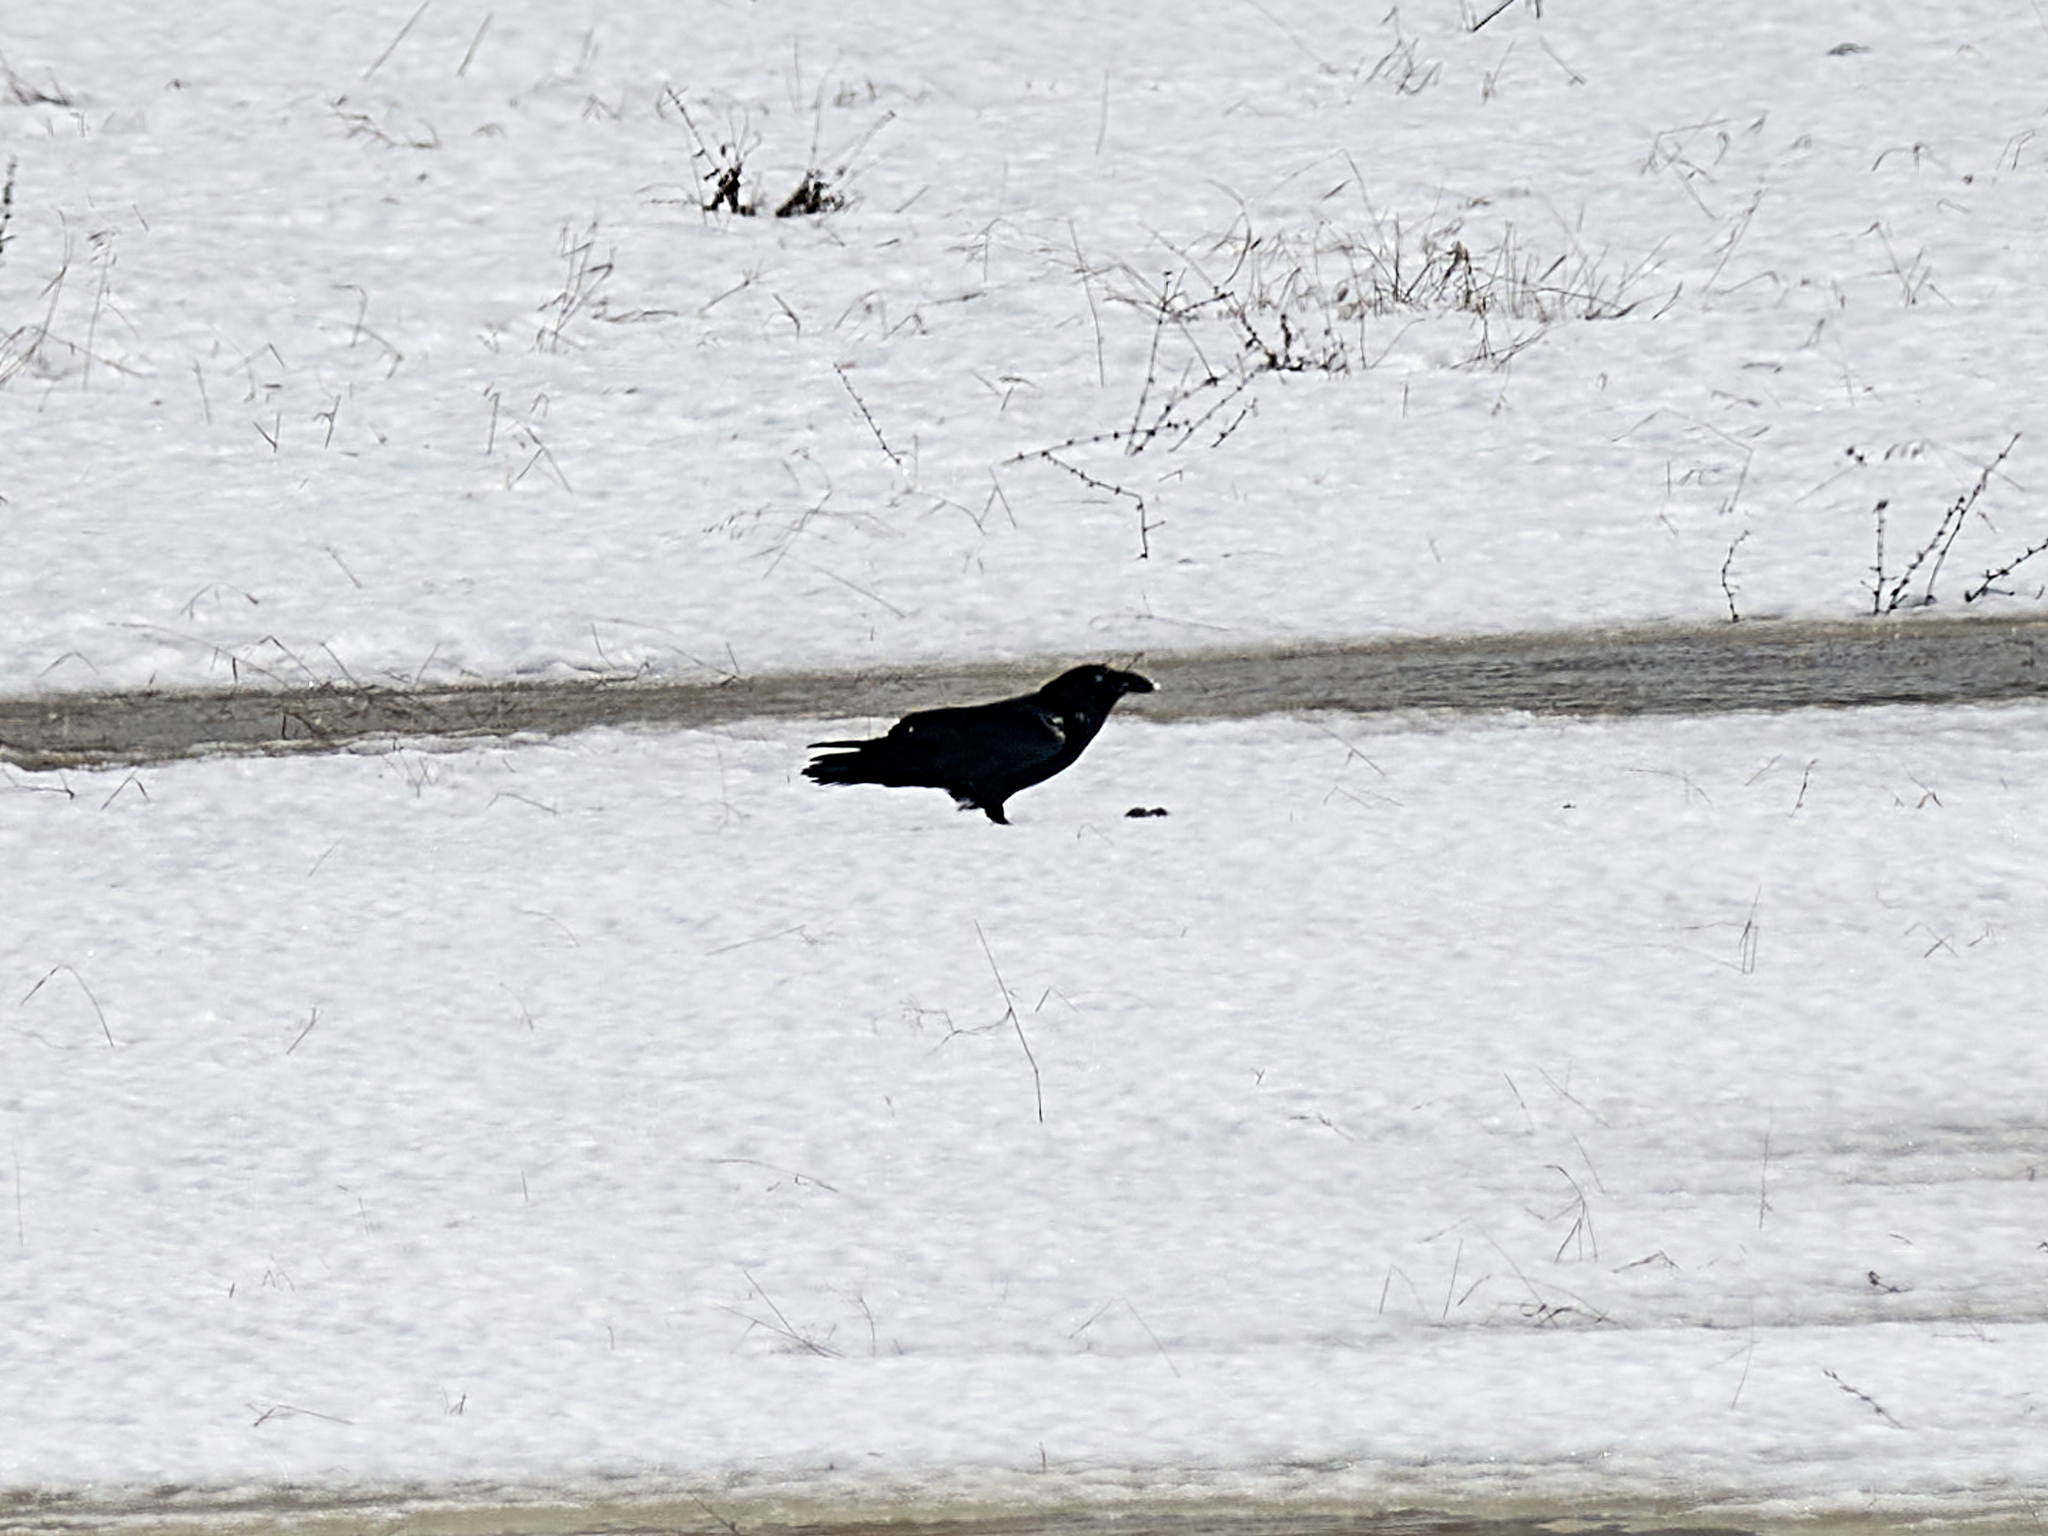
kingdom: Animalia
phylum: Chordata
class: Aves
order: Passeriformes
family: Corvidae
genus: Corvus
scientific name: Corvus corax
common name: Common raven
